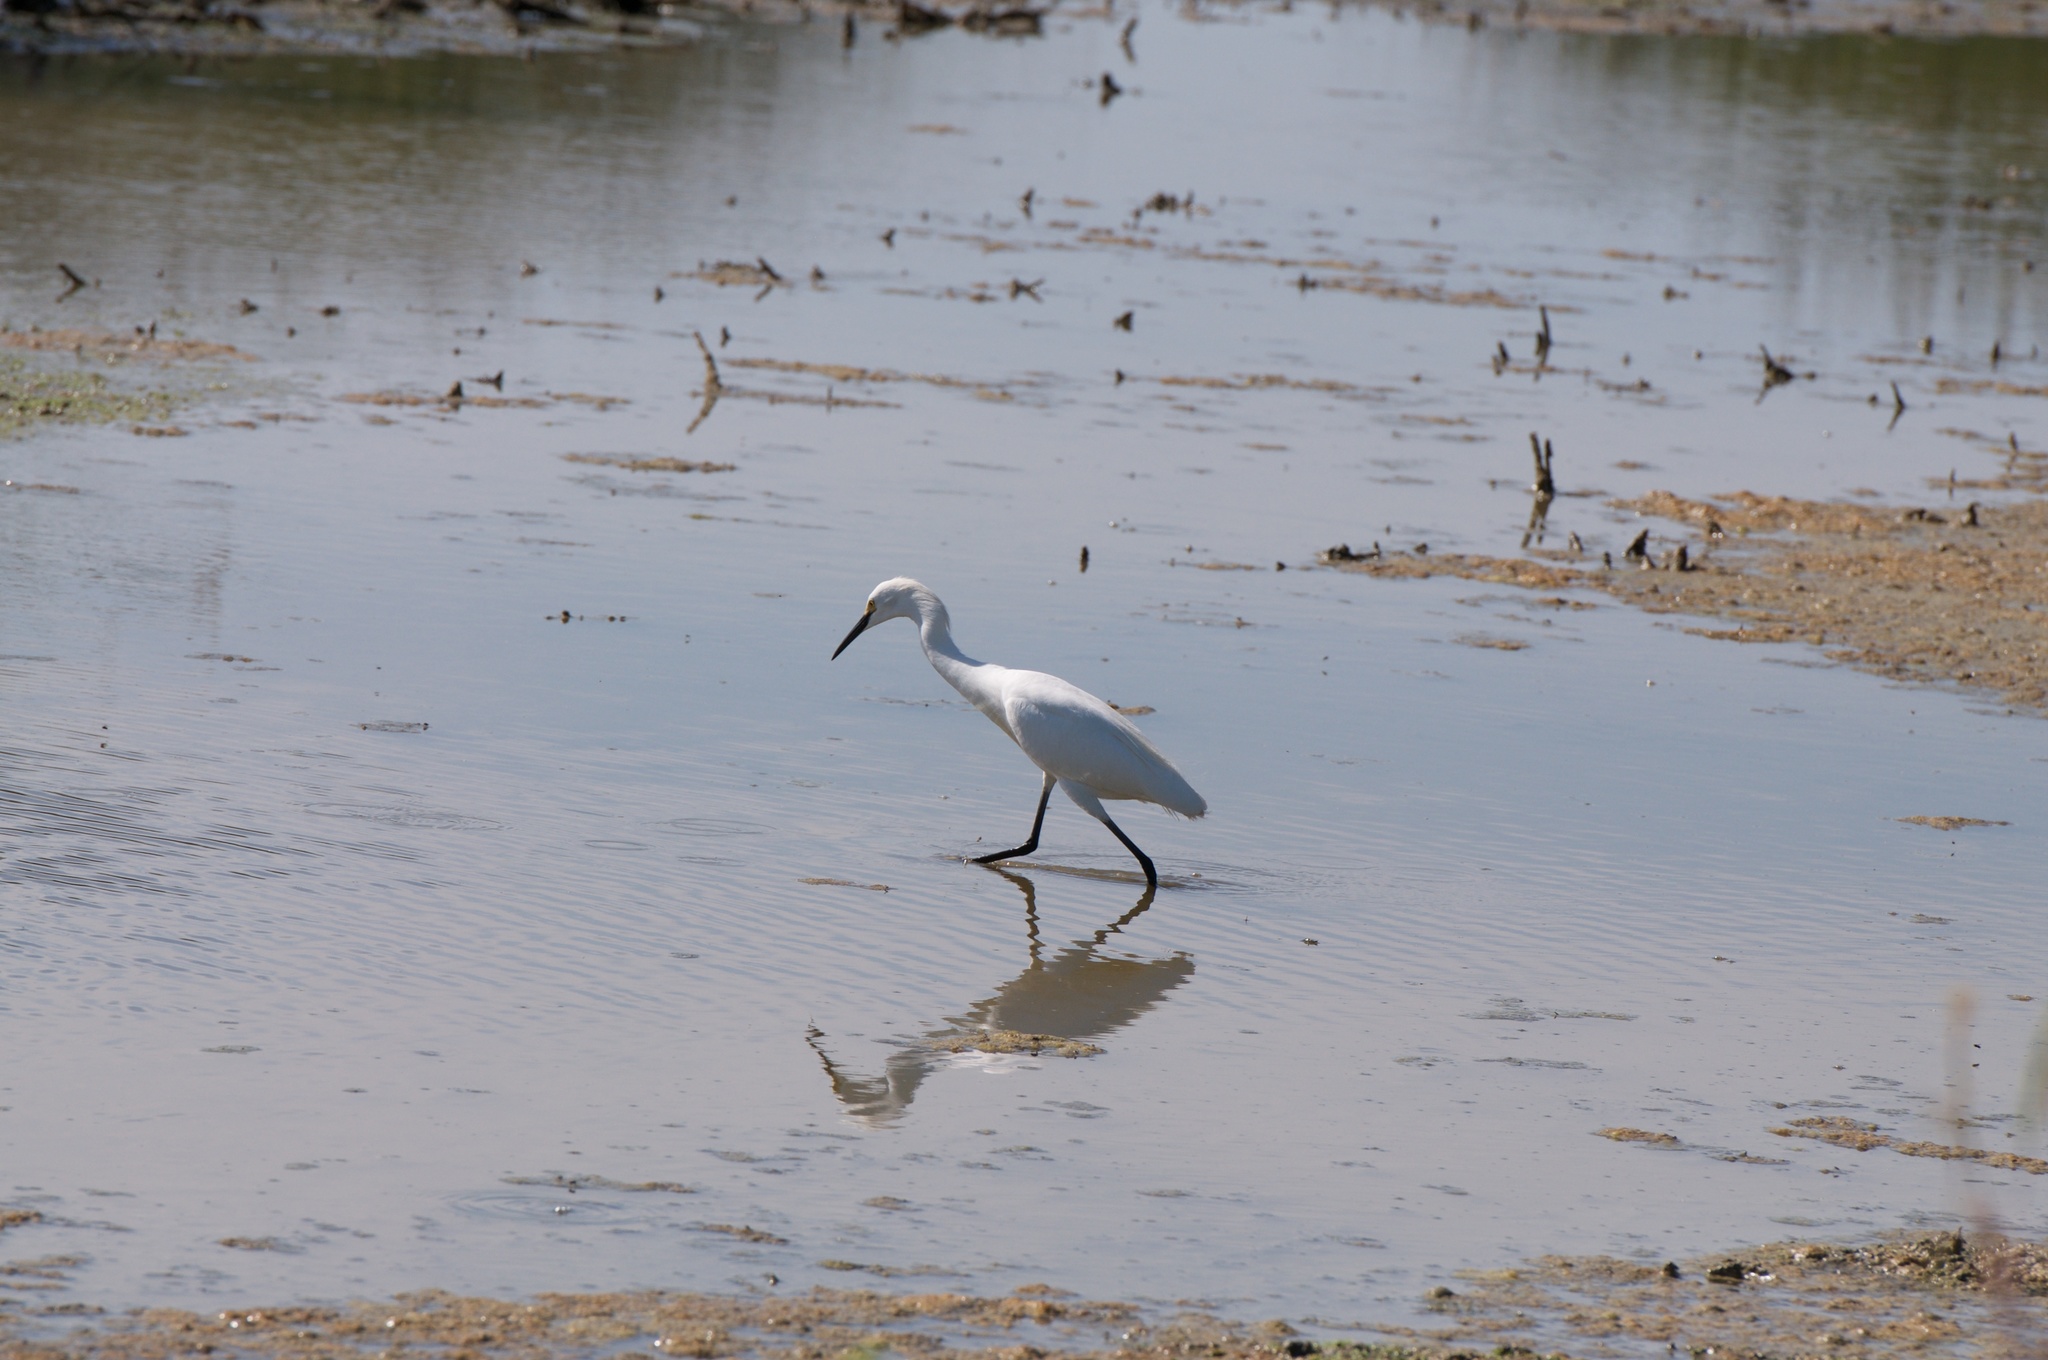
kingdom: Animalia
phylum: Chordata
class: Aves
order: Pelecaniformes
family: Ardeidae
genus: Egretta
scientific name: Egretta thula
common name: Snowy egret
